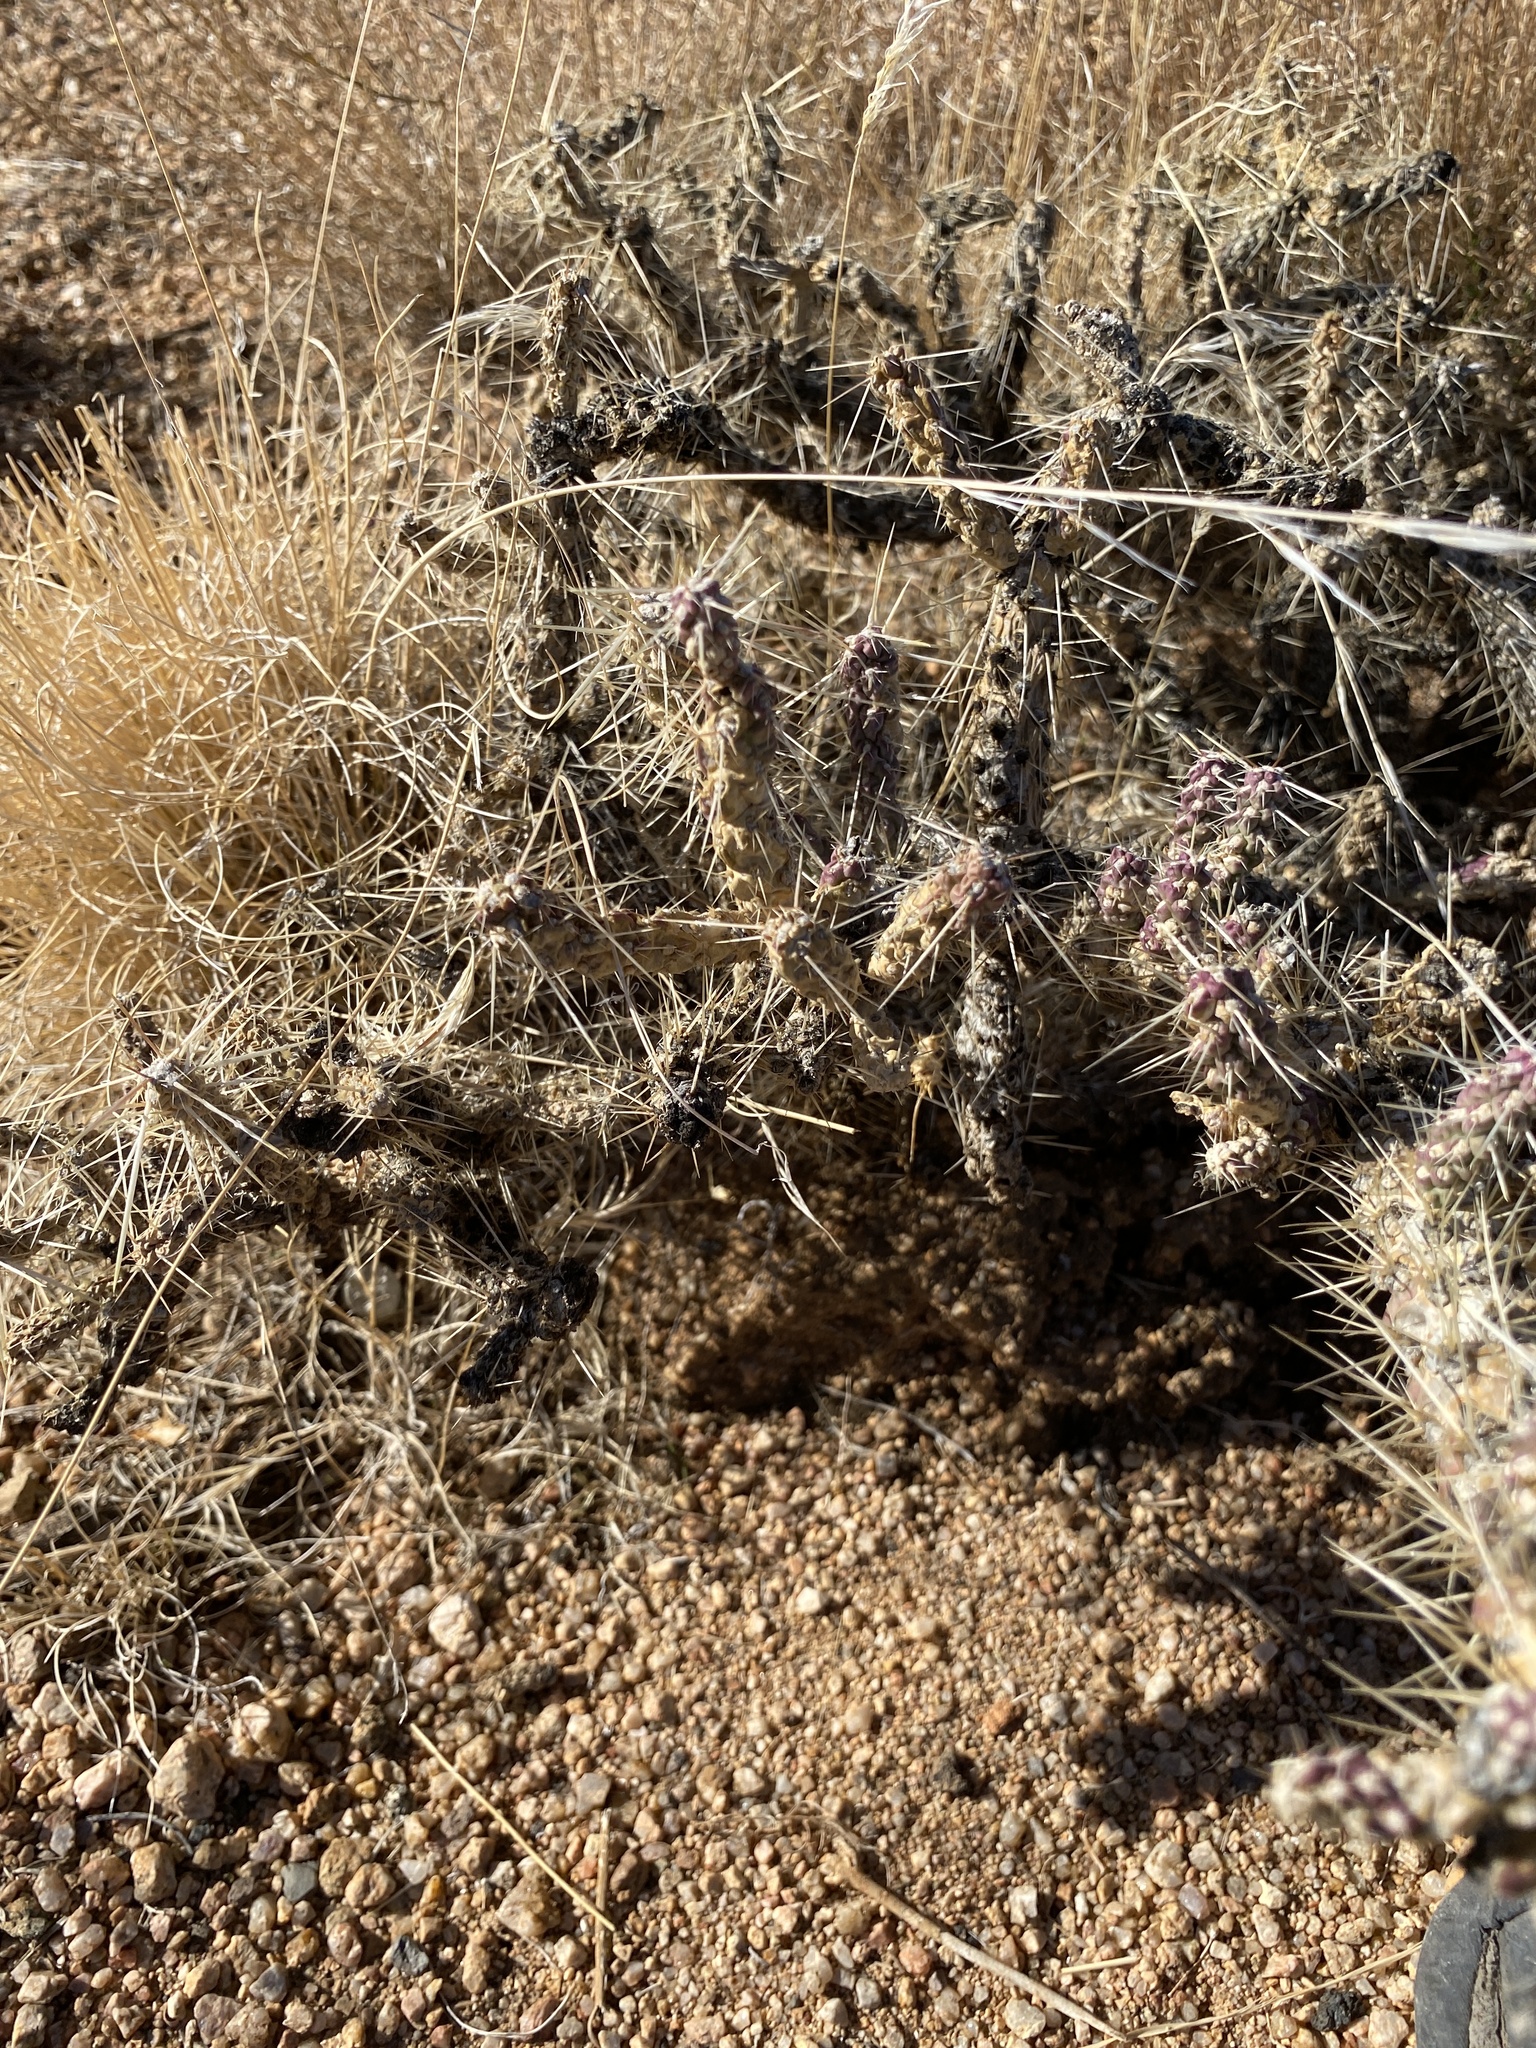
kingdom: Plantae
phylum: Tracheophyta
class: Magnoliopsida
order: Caryophyllales
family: Cactaceae
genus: Cylindropuntia
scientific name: Cylindropuntia whipplei
